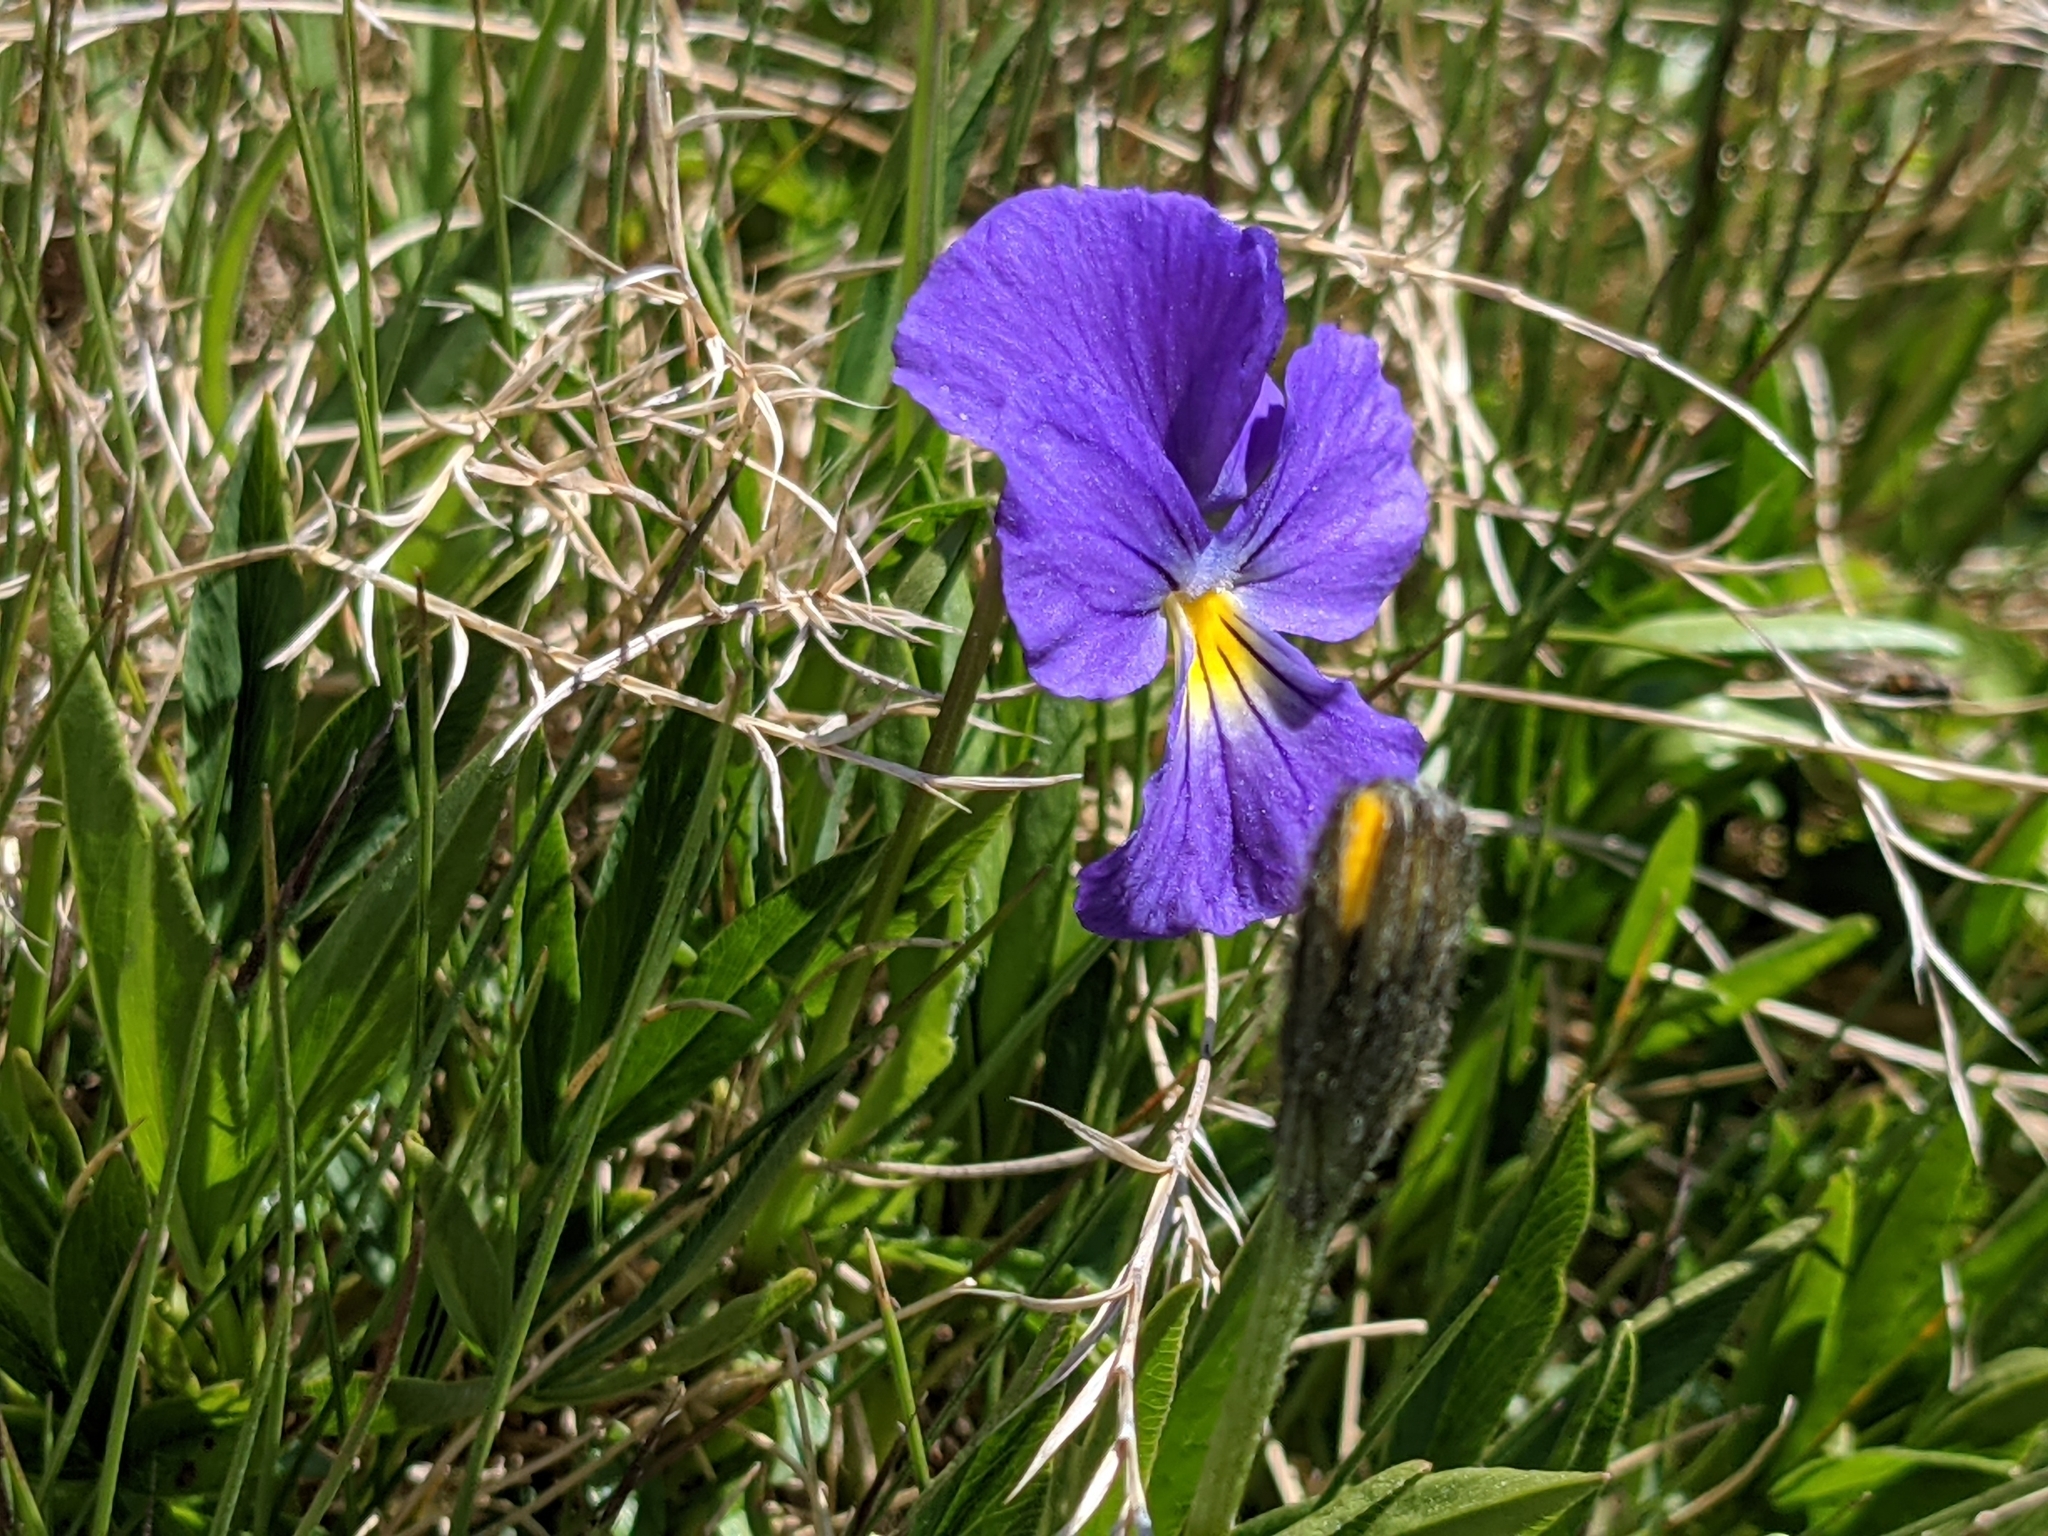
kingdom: Plantae
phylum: Tracheophyta
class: Magnoliopsida
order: Malpighiales
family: Violaceae
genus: Viola
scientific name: Viola calcarata
